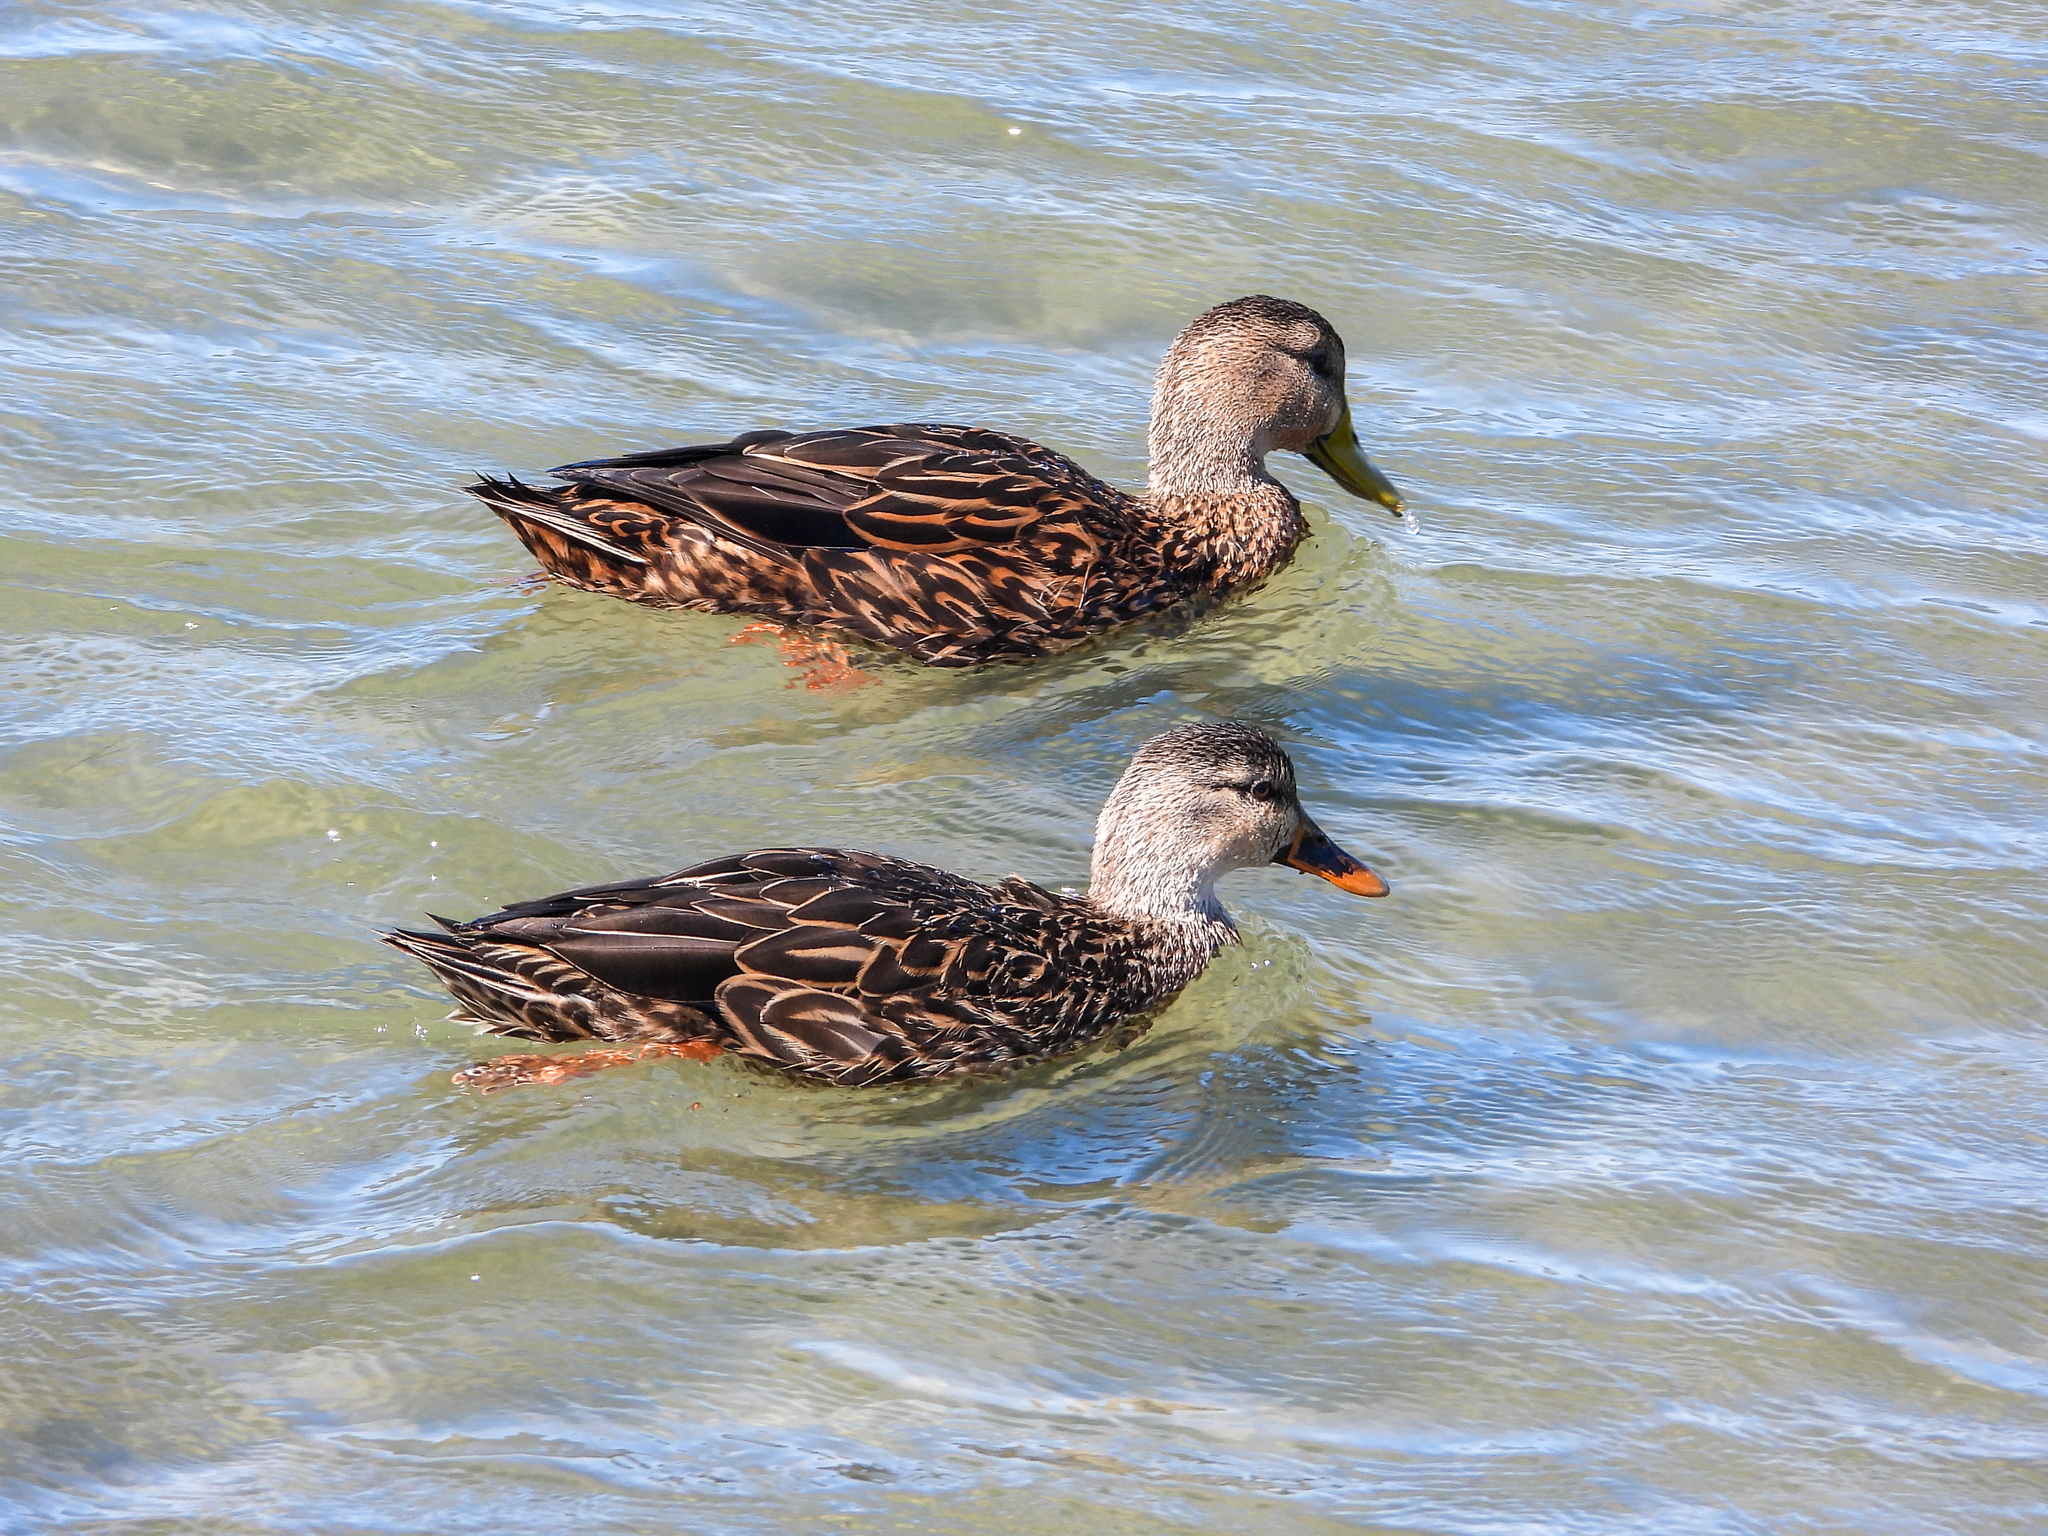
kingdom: Animalia
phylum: Chordata
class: Aves
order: Anseriformes
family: Anatidae
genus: Anas
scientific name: Anas fulvigula
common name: Mottled duck
